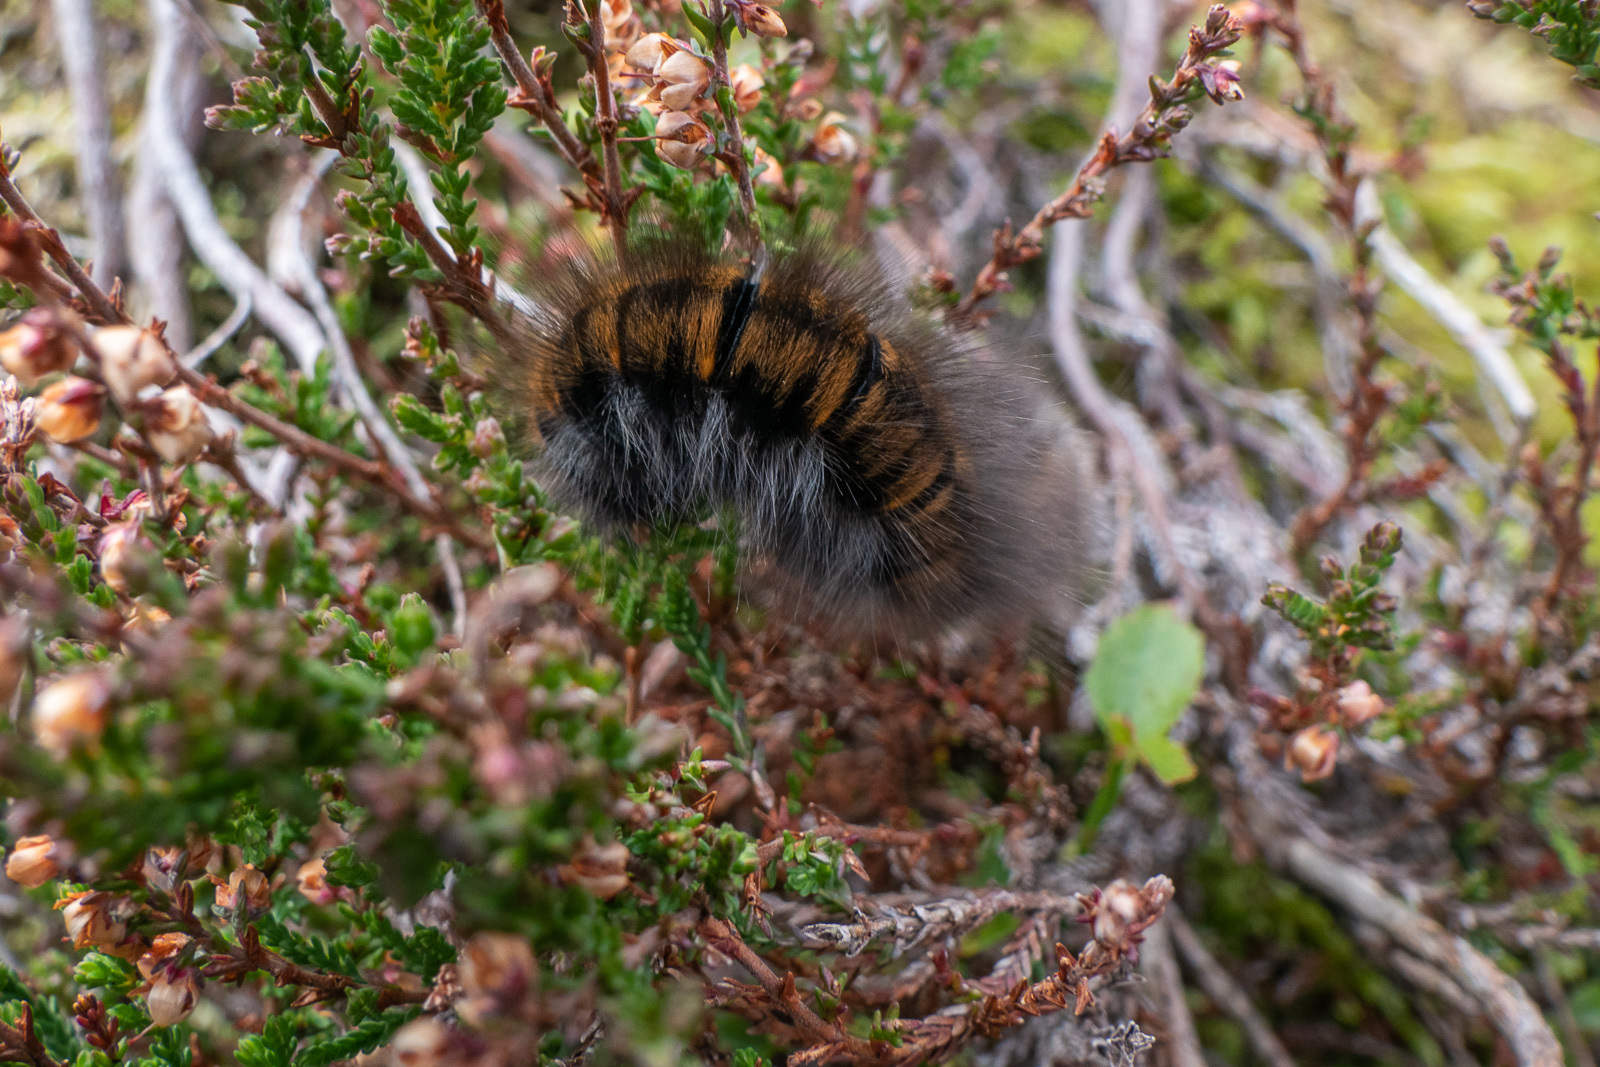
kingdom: Animalia
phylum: Arthropoda
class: Insecta
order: Lepidoptera
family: Lasiocampidae
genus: Macrothylacia
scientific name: Macrothylacia rubi
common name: Fox moth
